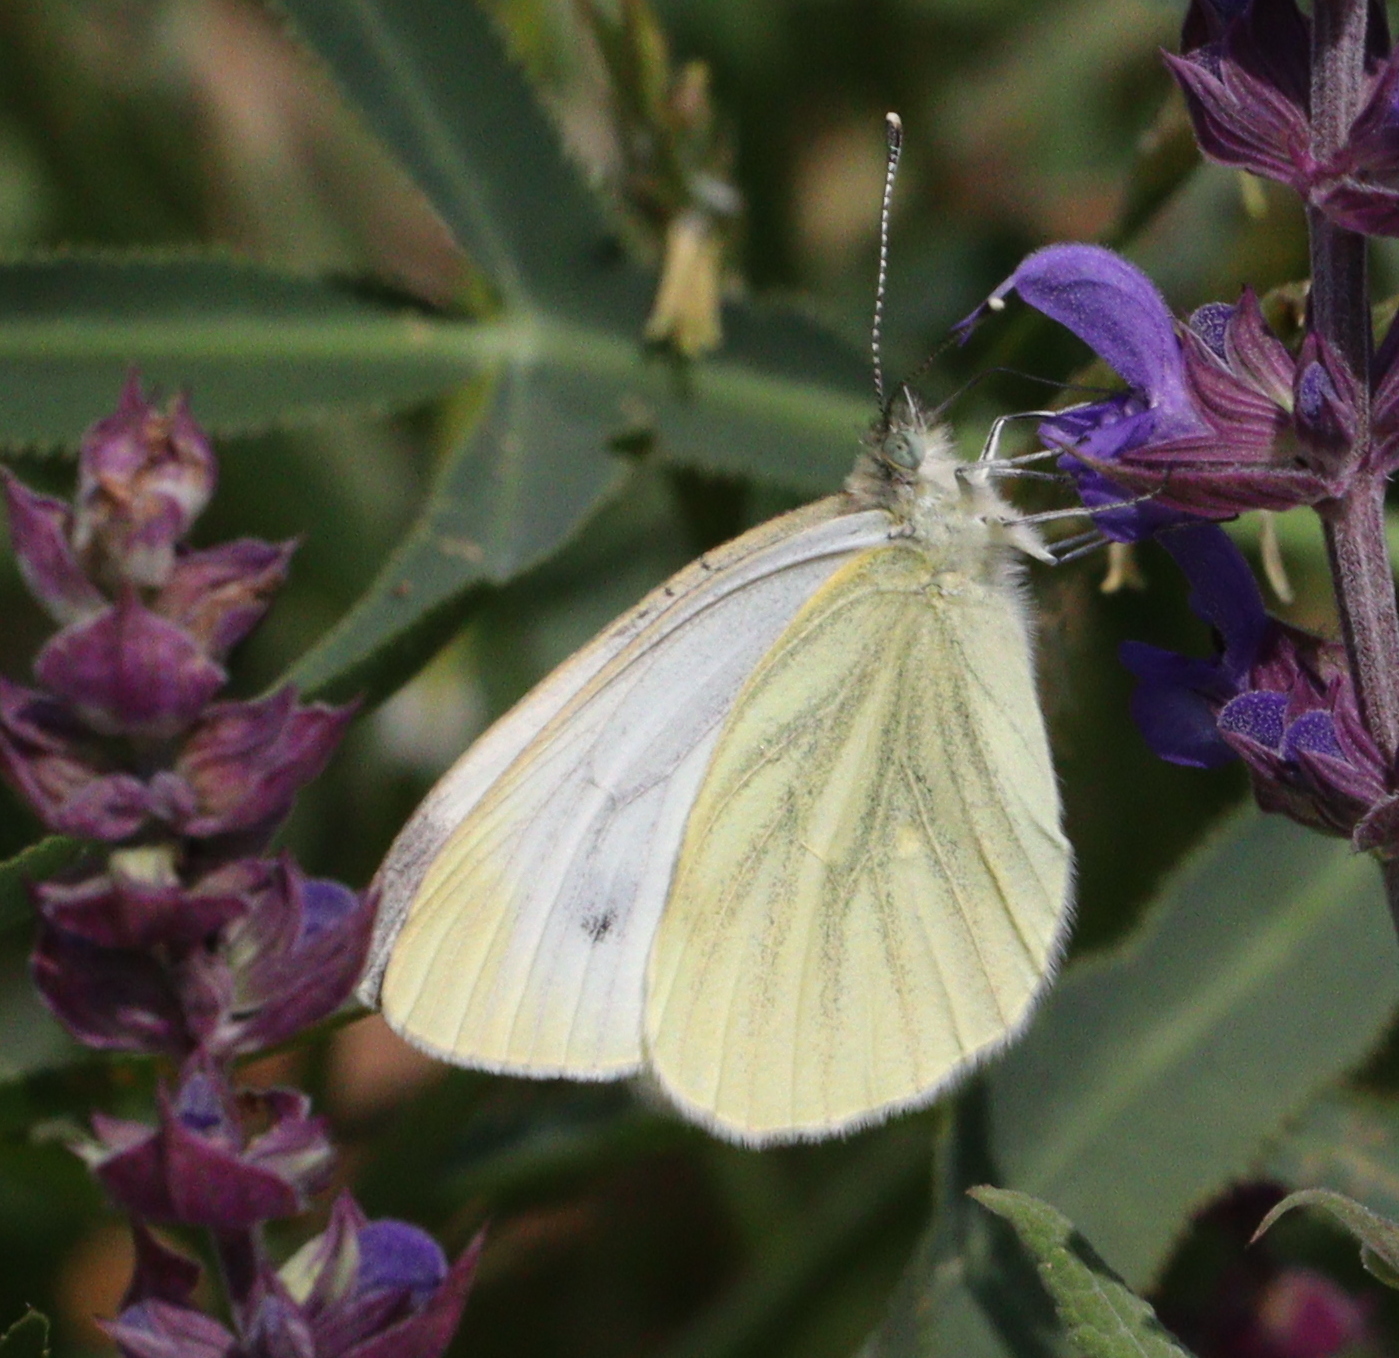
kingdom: Animalia
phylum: Arthropoda
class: Insecta
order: Lepidoptera
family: Pieridae
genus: Pieris
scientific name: Pieris napi
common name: Green-veined white
